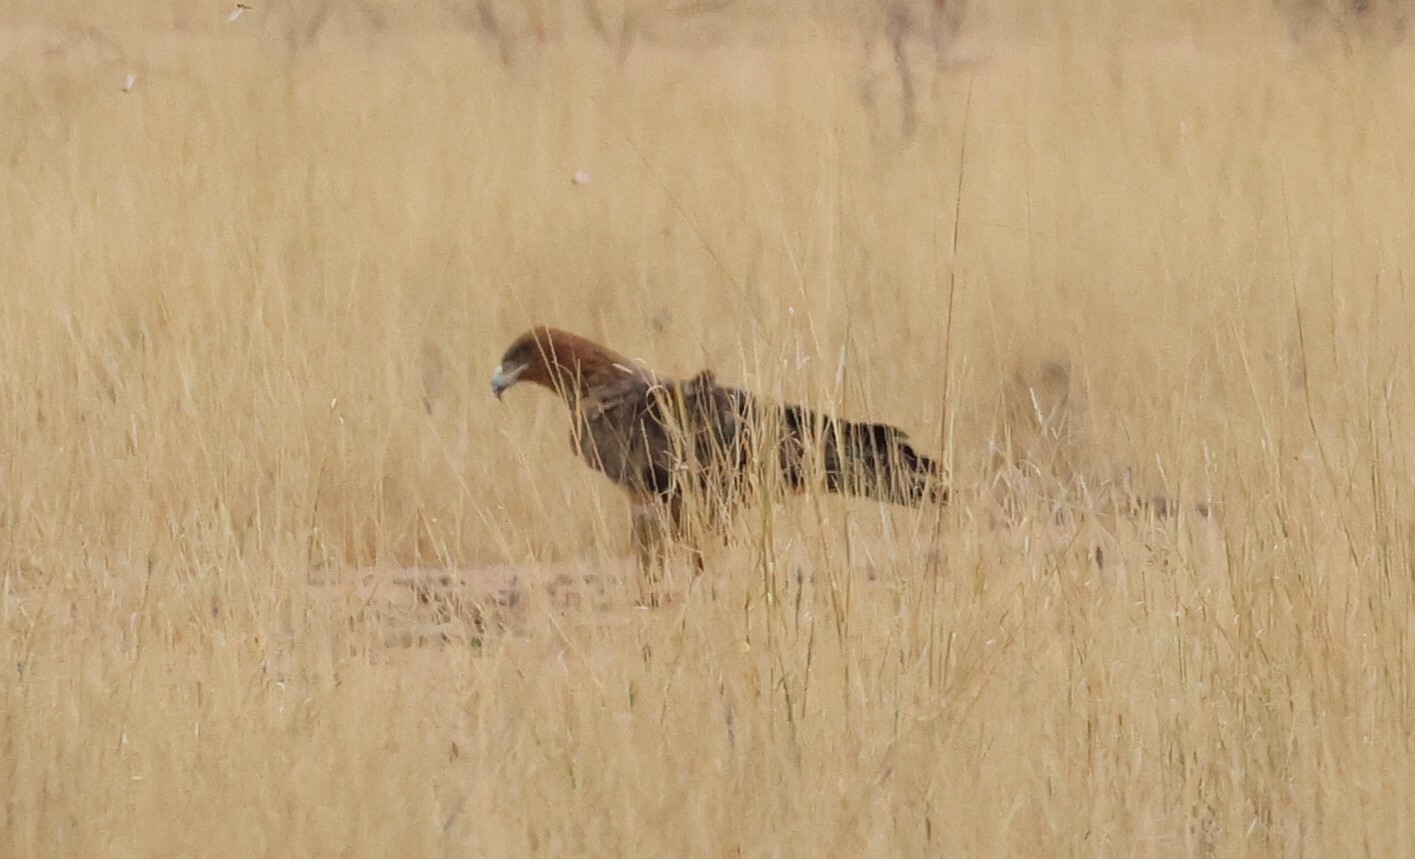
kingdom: Animalia
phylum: Chordata
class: Aves
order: Accipitriformes
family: Accipitridae
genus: Aquila
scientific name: Aquila rapax
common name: Tawny eagle
